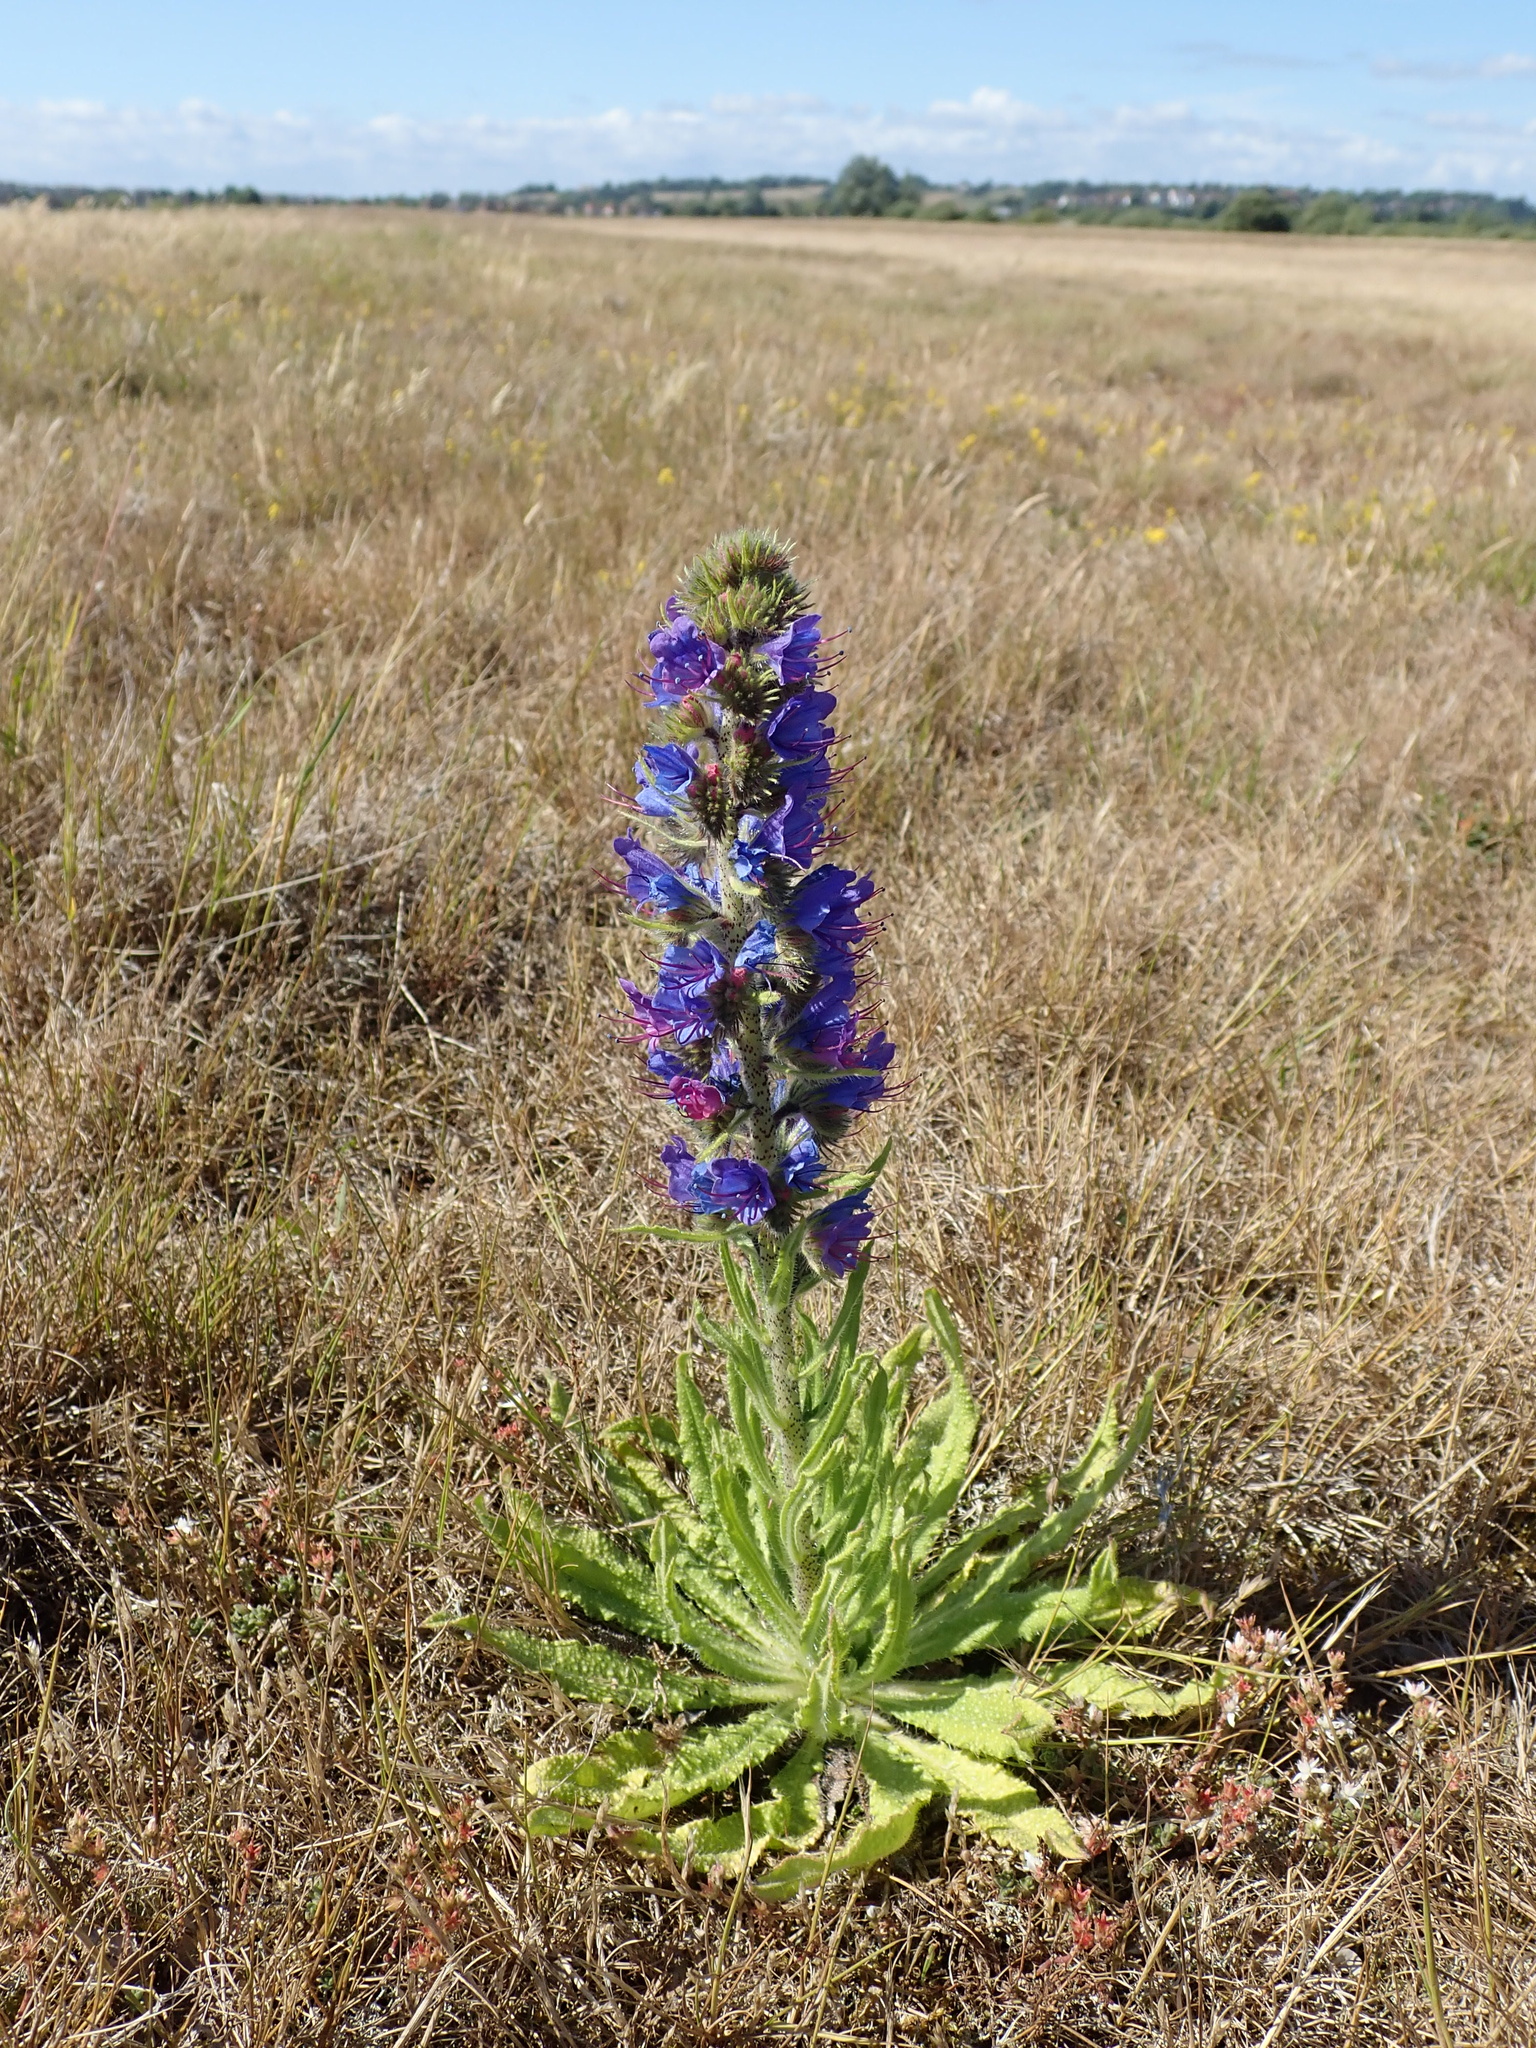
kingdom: Plantae
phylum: Tracheophyta
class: Magnoliopsida
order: Boraginales
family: Boraginaceae
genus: Echium
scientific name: Echium vulgare
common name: Common viper's bugloss
